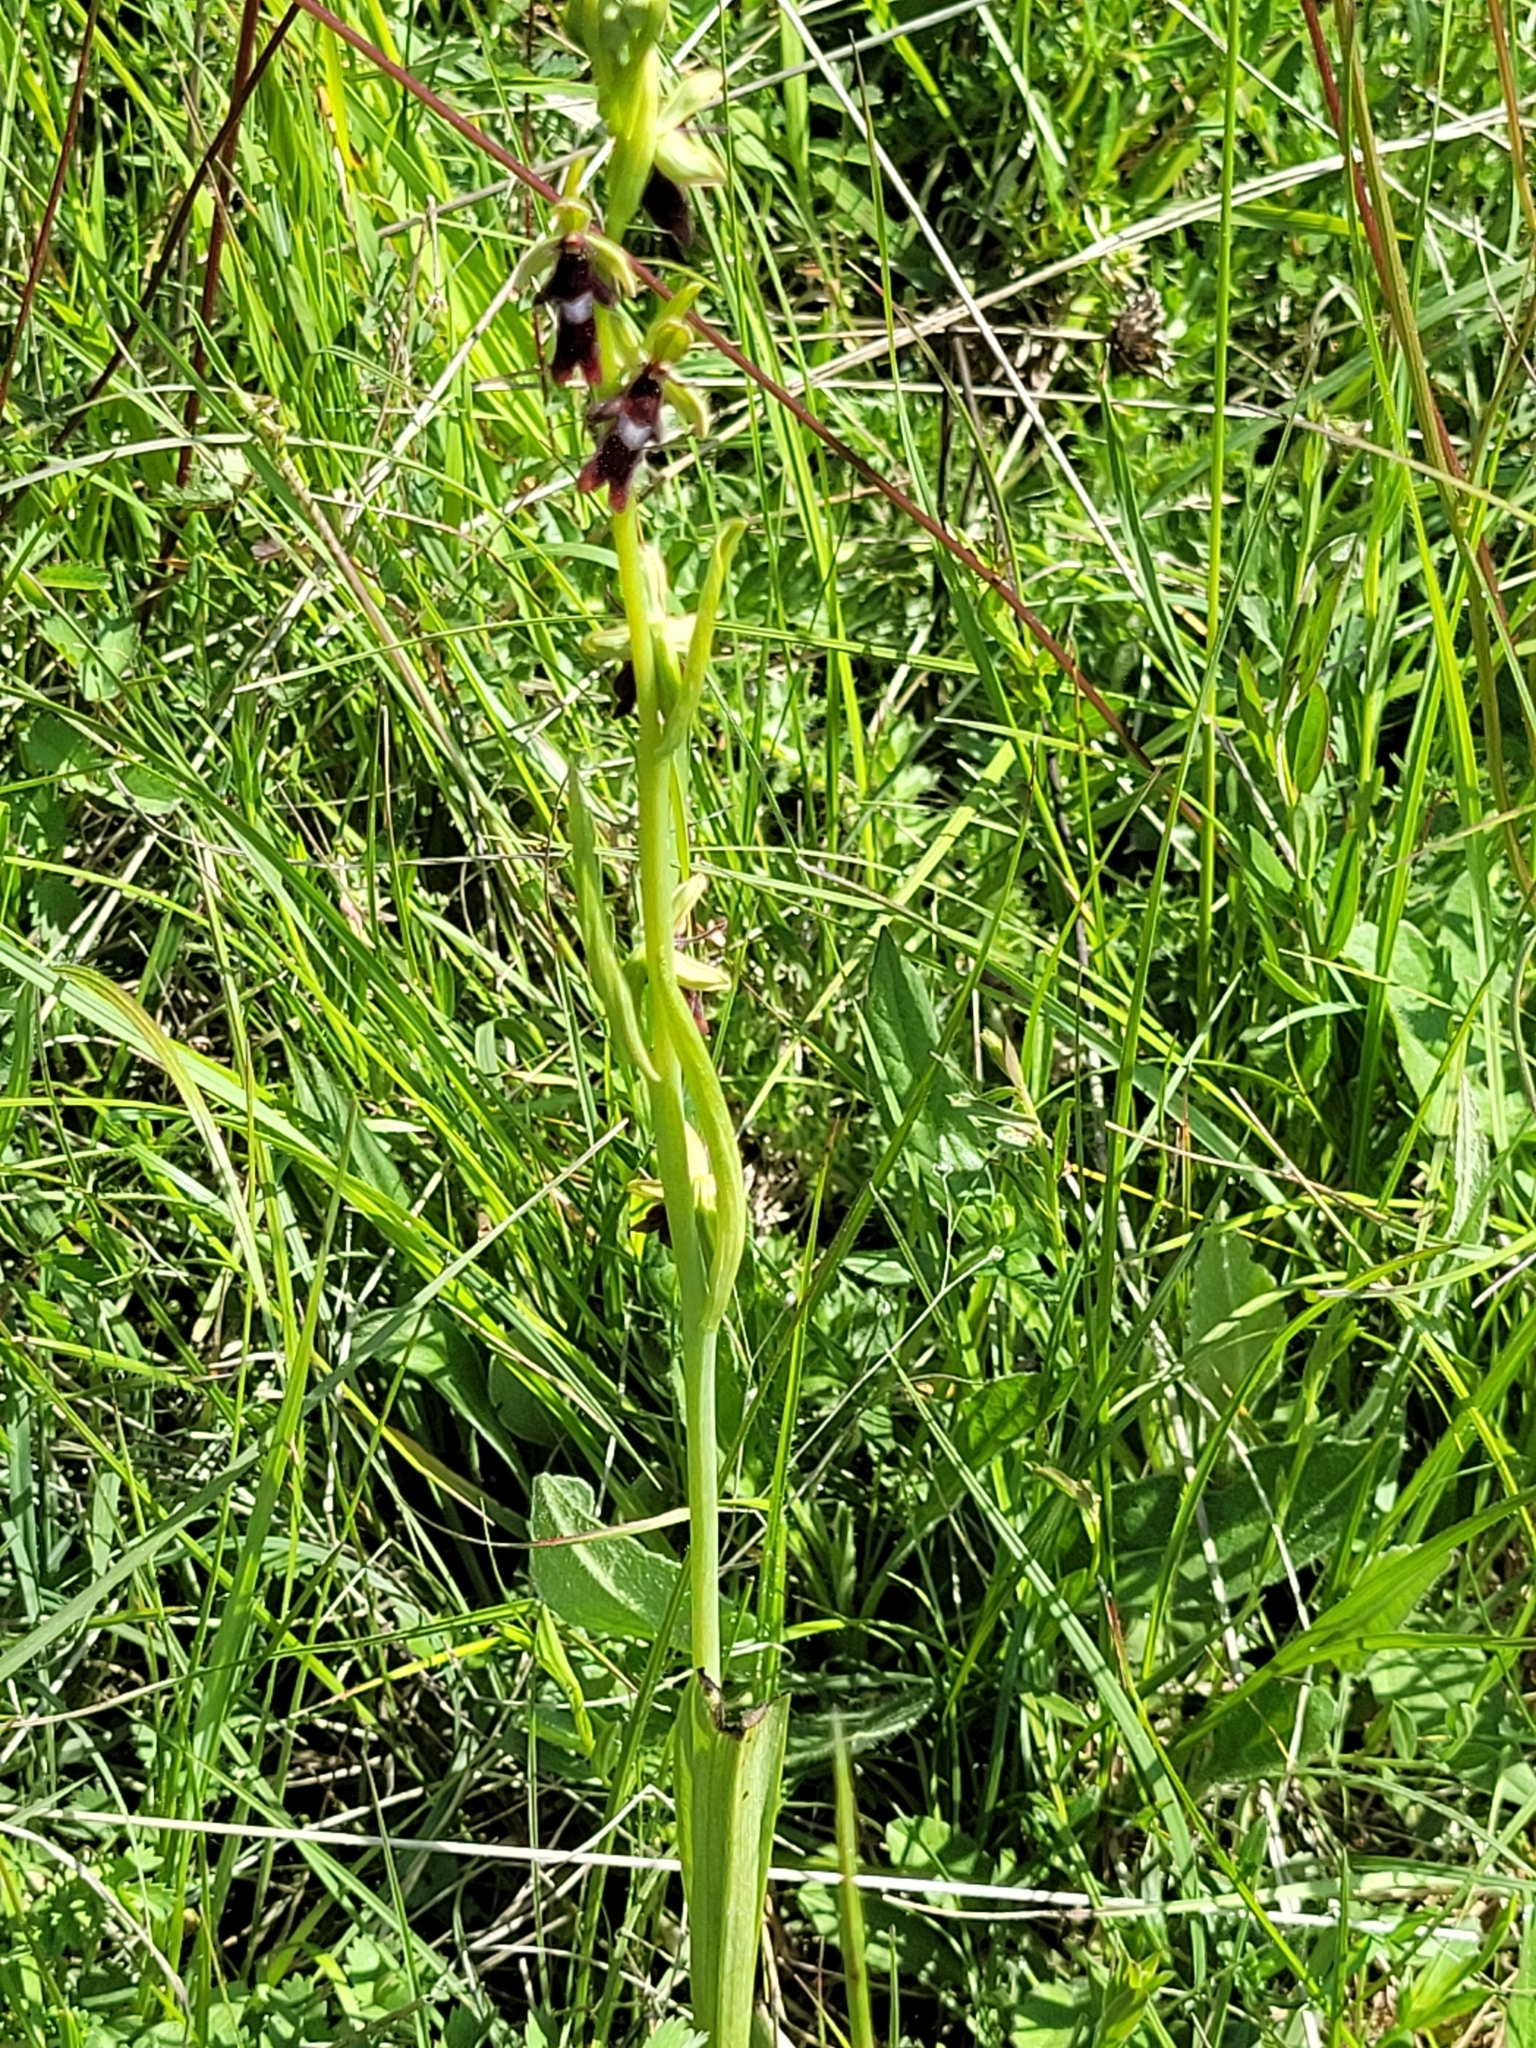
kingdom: Plantae
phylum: Tracheophyta
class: Liliopsida
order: Asparagales
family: Orchidaceae
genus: Ophrys
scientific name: Ophrys insectifera
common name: Fly orchid
